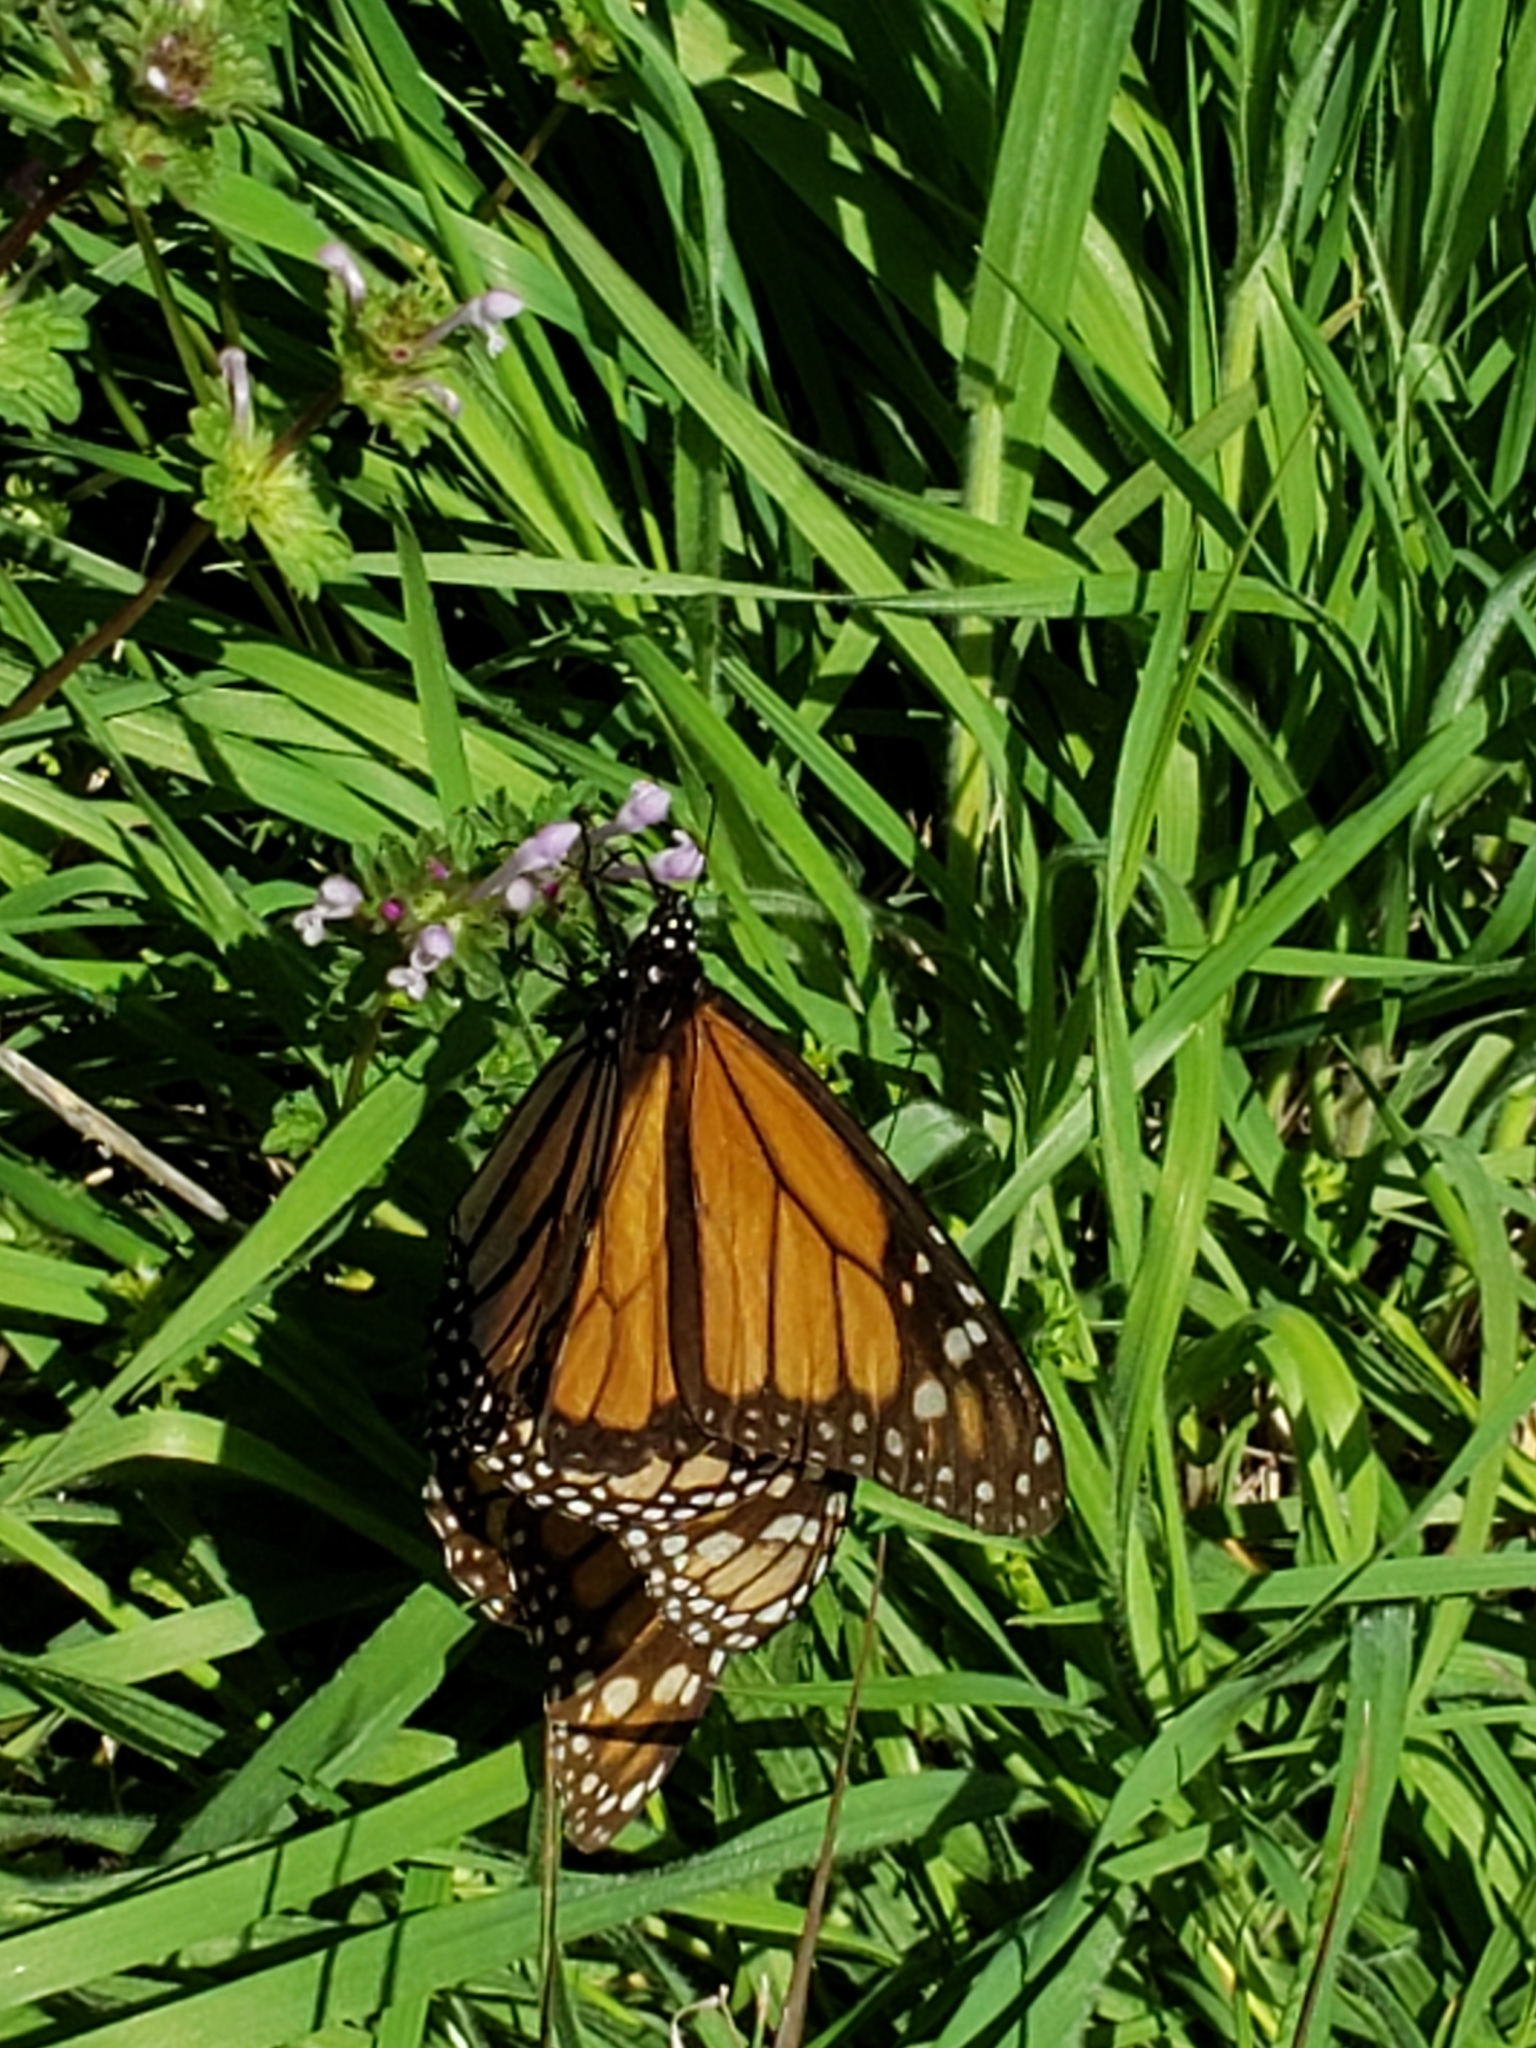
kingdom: Animalia
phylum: Arthropoda
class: Insecta
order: Lepidoptera
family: Nymphalidae
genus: Danaus
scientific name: Danaus plexippus
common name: Monarch
